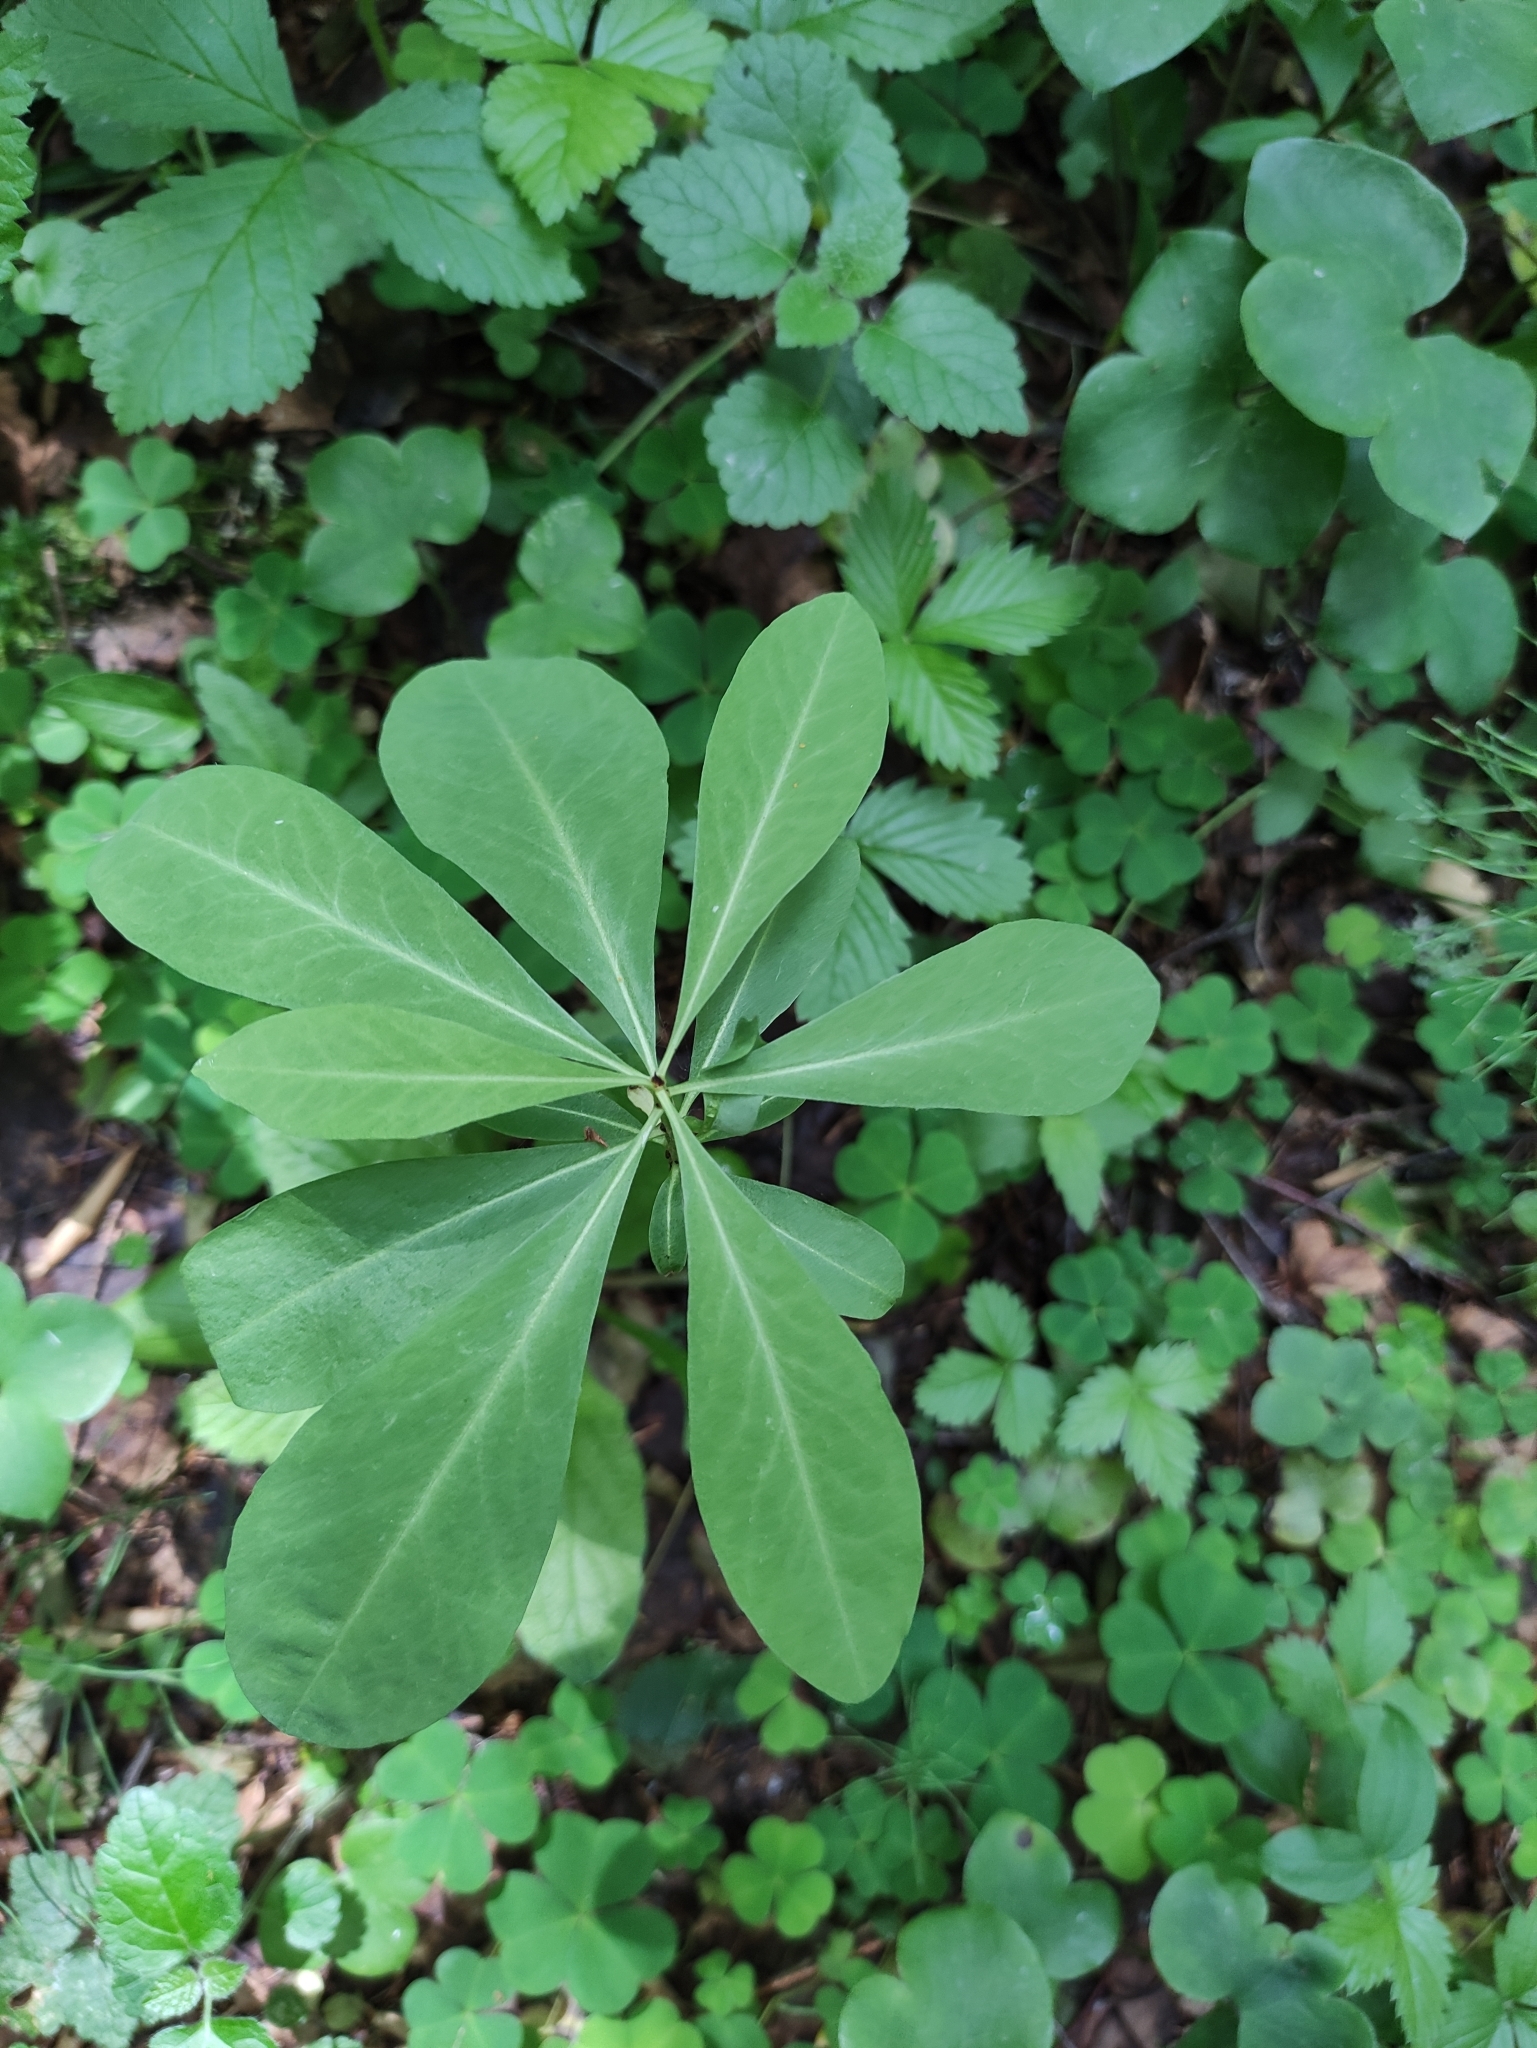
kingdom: Plantae
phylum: Tracheophyta
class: Magnoliopsida
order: Malvales
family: Thymelaeaceae
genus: Daphne
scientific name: Daphne mezereum
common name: Mezereon
